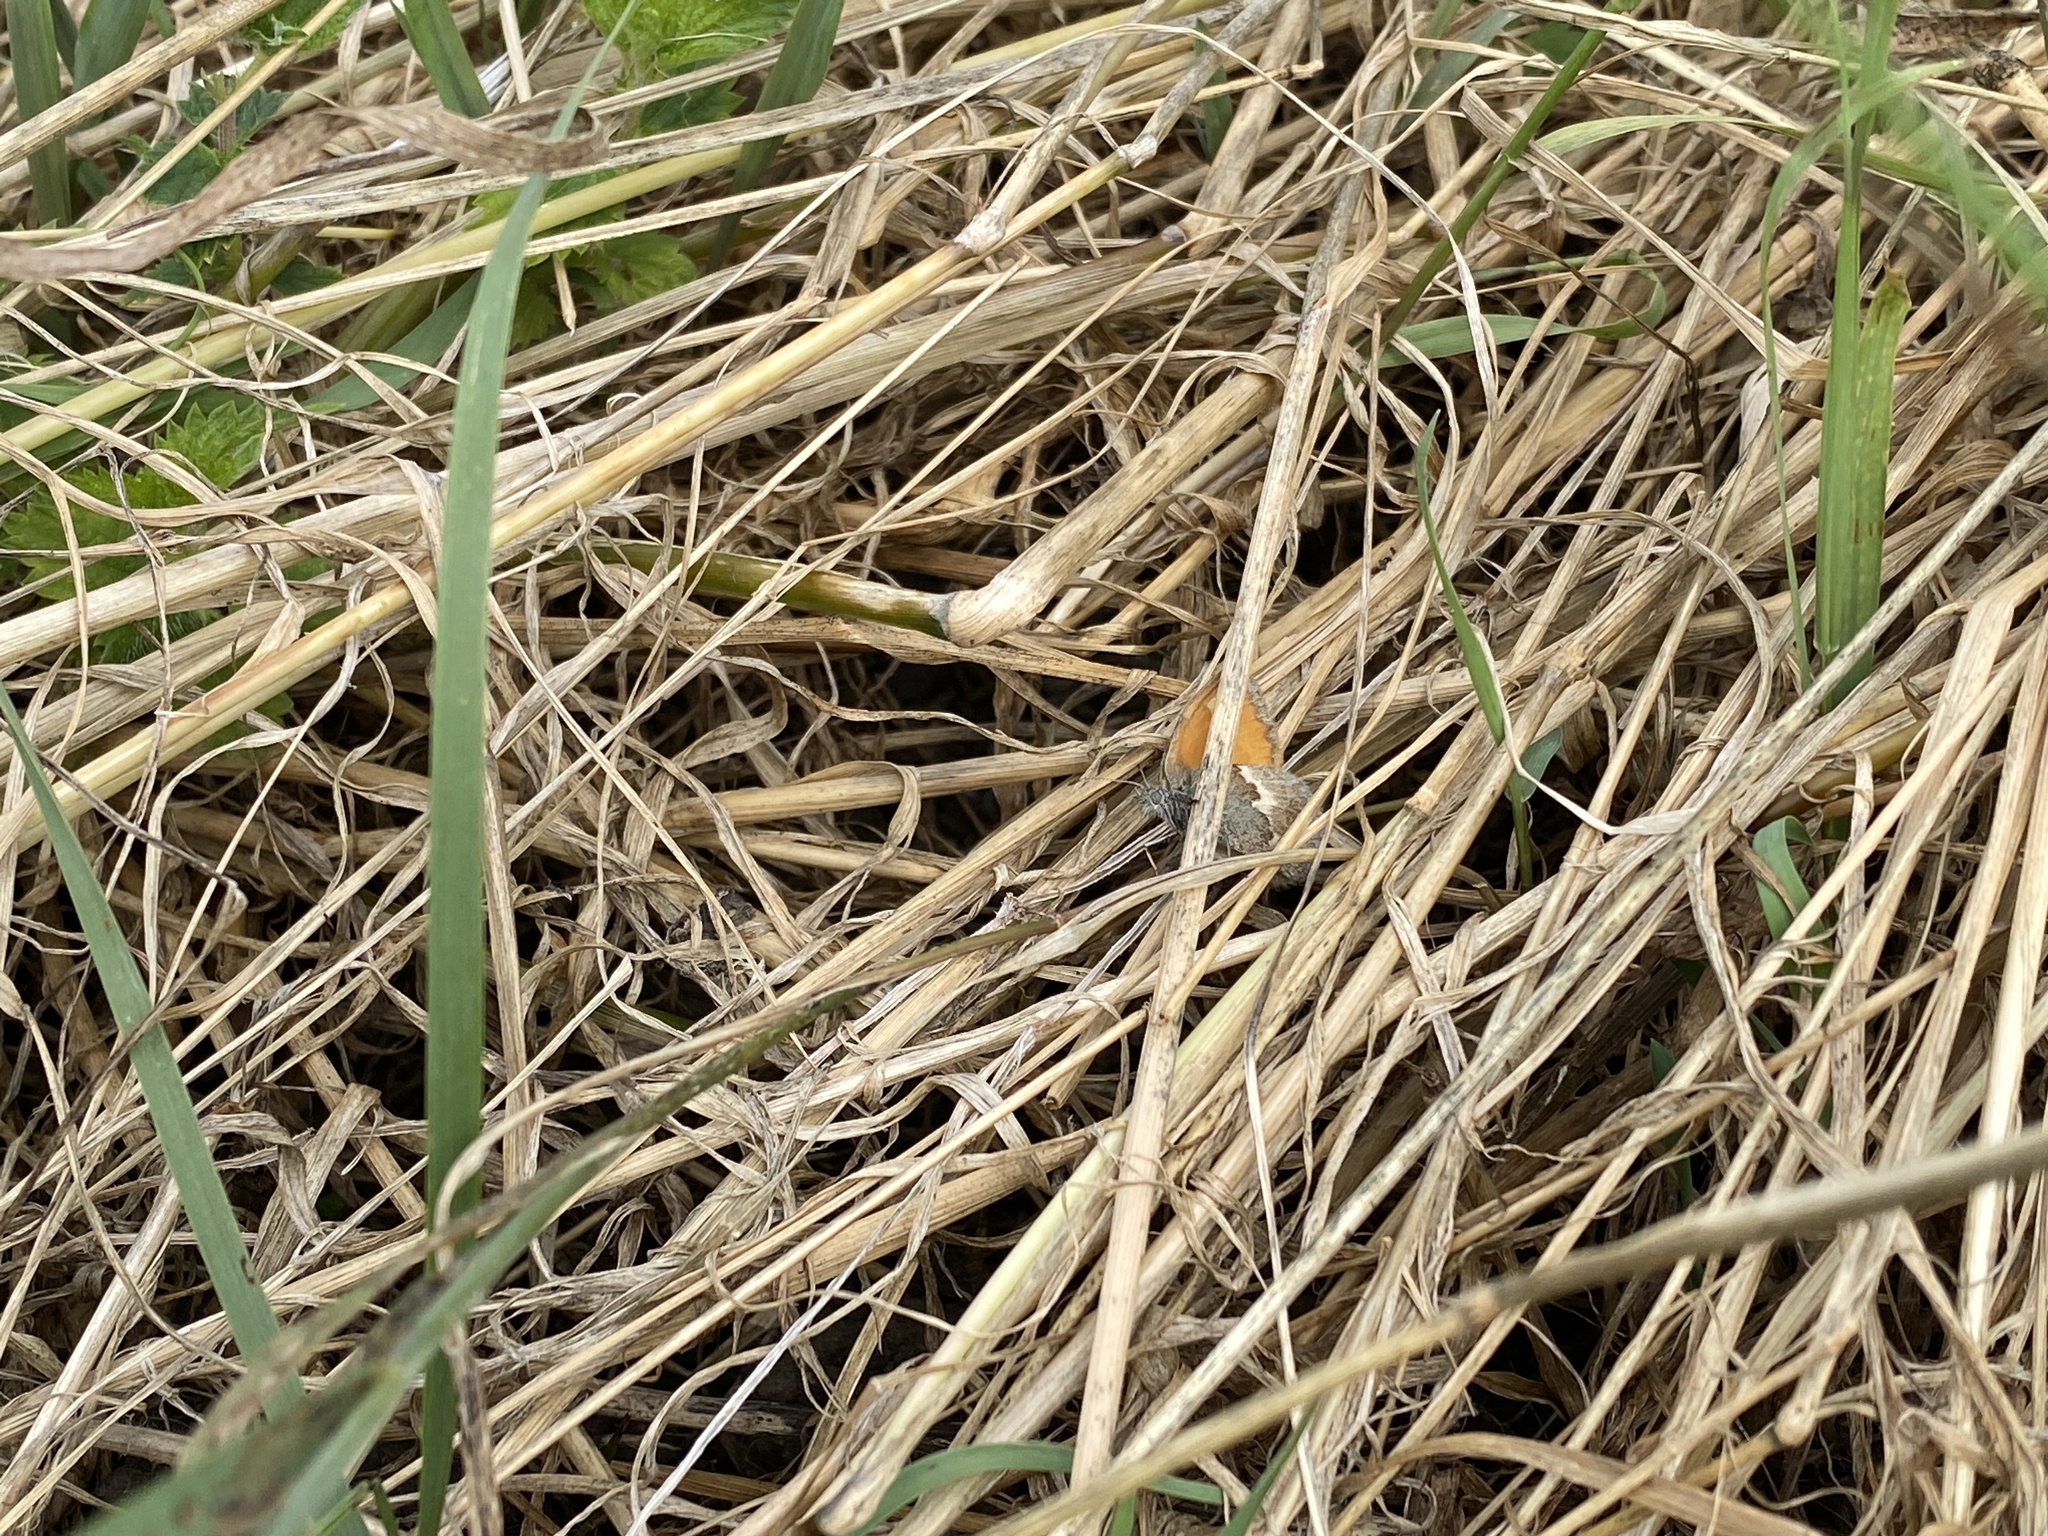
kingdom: Animalia
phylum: Arthropoda
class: Insecta
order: Lepidoptera
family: Nymphalidae
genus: Coenonympha
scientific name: Coenonympha pamphilus
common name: Small heath
